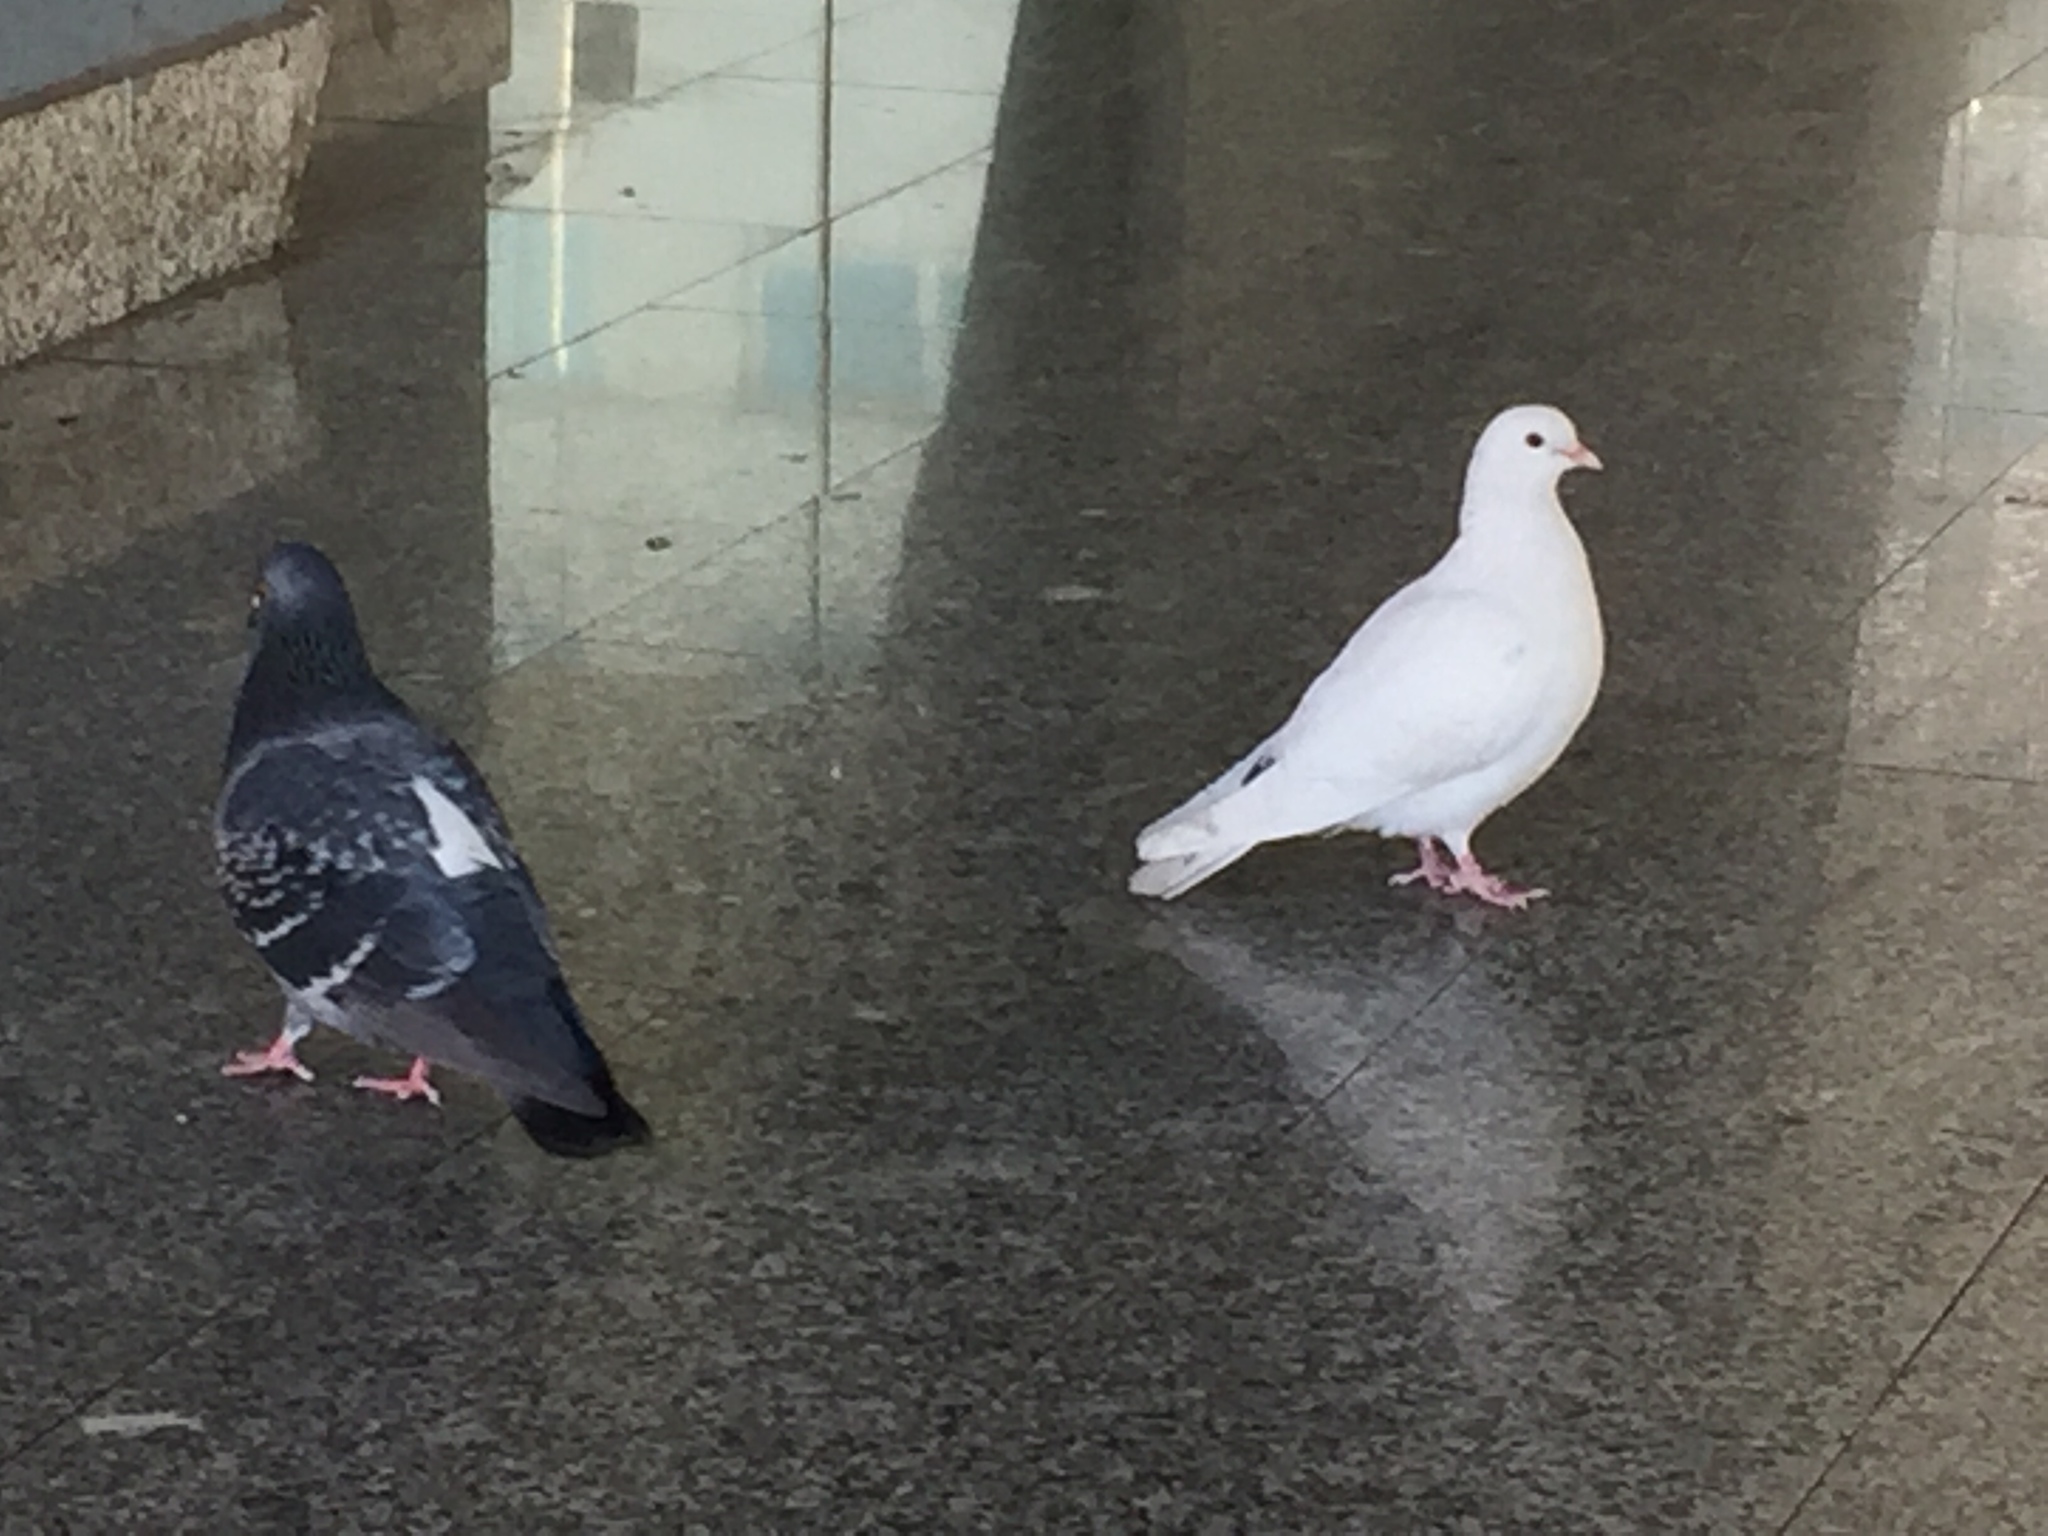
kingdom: Animalia
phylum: Chordata
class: Aves
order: Columbiformes
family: Columbidae
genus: Columba
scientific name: Columba livia
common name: Rock pigeon
